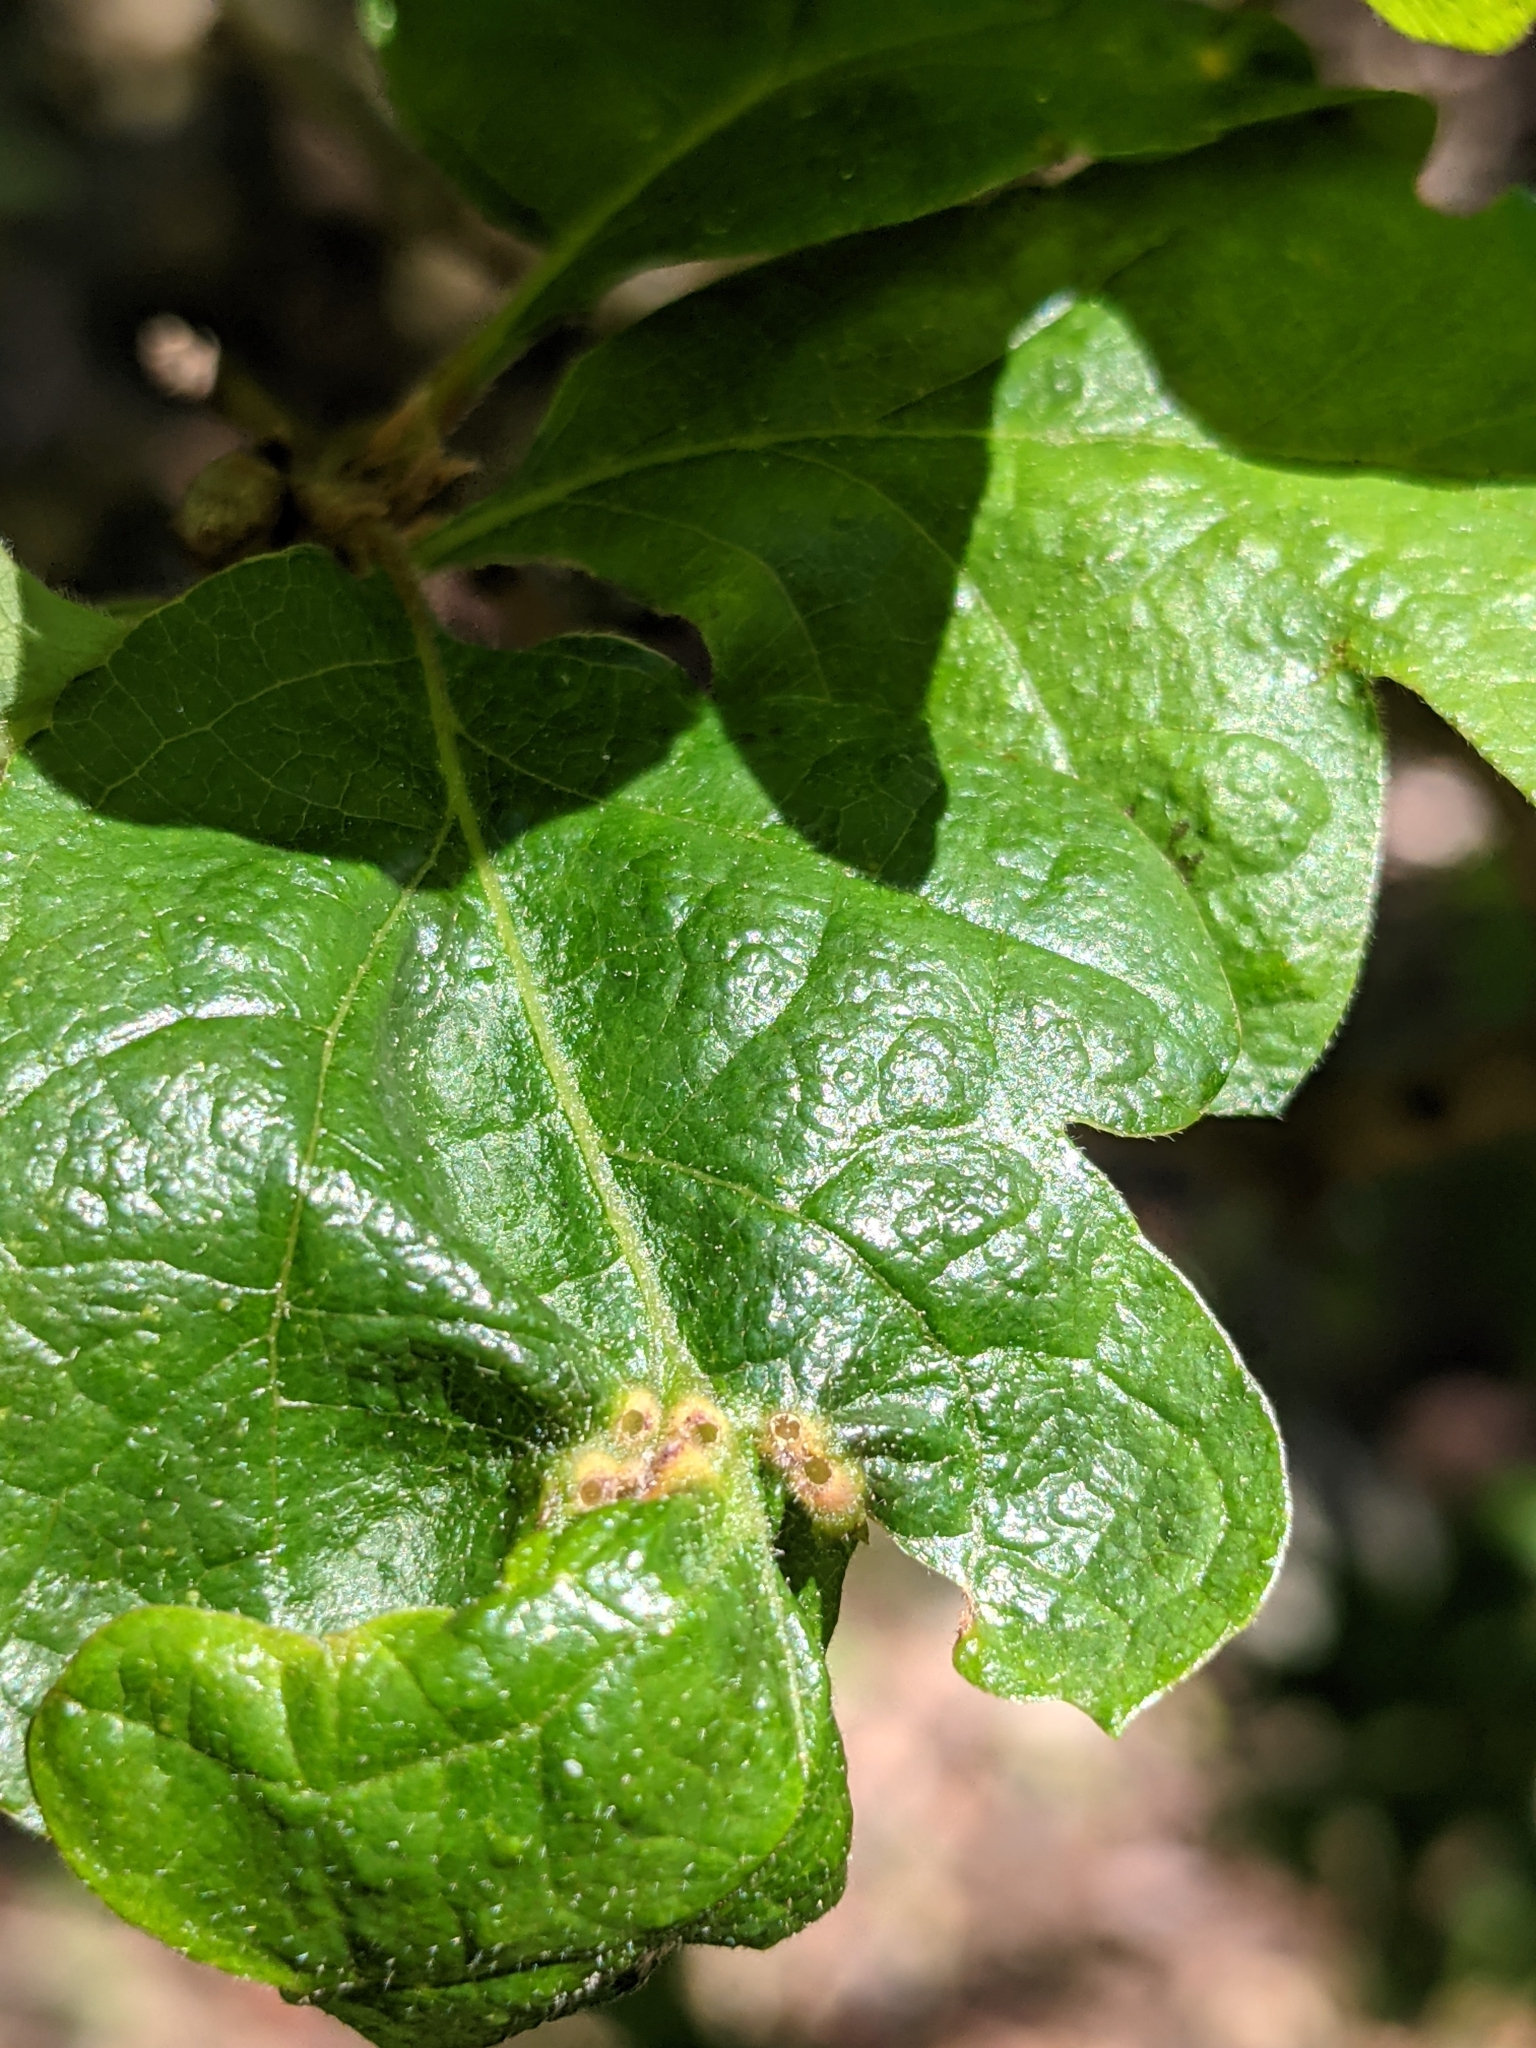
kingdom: Animalia
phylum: Arthropoda
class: Insecta
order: Hymenoptera
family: Cynipidae
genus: Neuroterus
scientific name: Neuroterus saltarius
